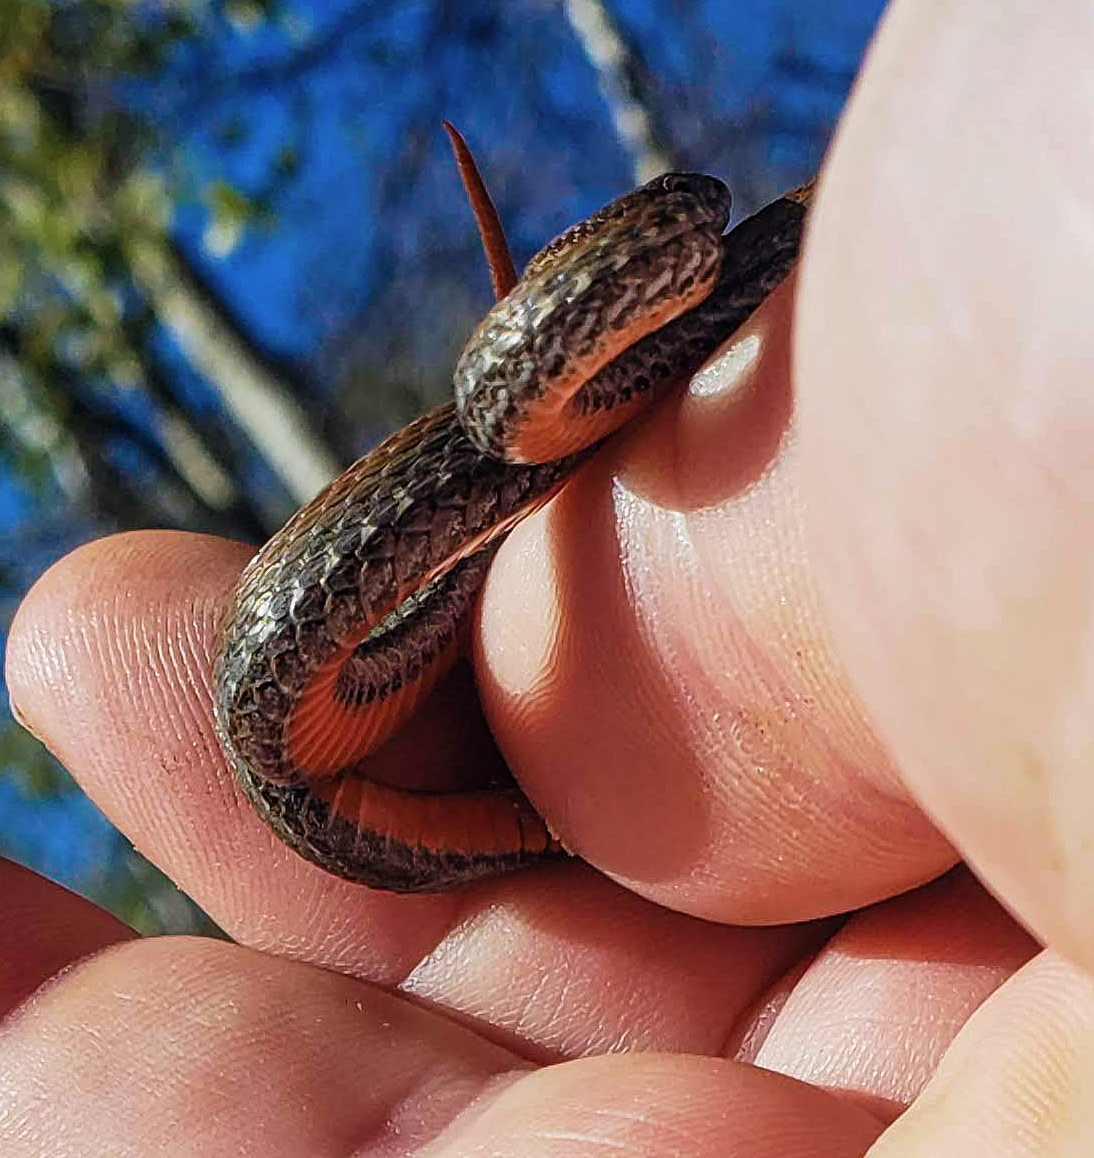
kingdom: Animalia
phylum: Chordata
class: Squamata
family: Colubridae
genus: Storeria
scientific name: Storeria occipitomaculata
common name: Redbelly snake
